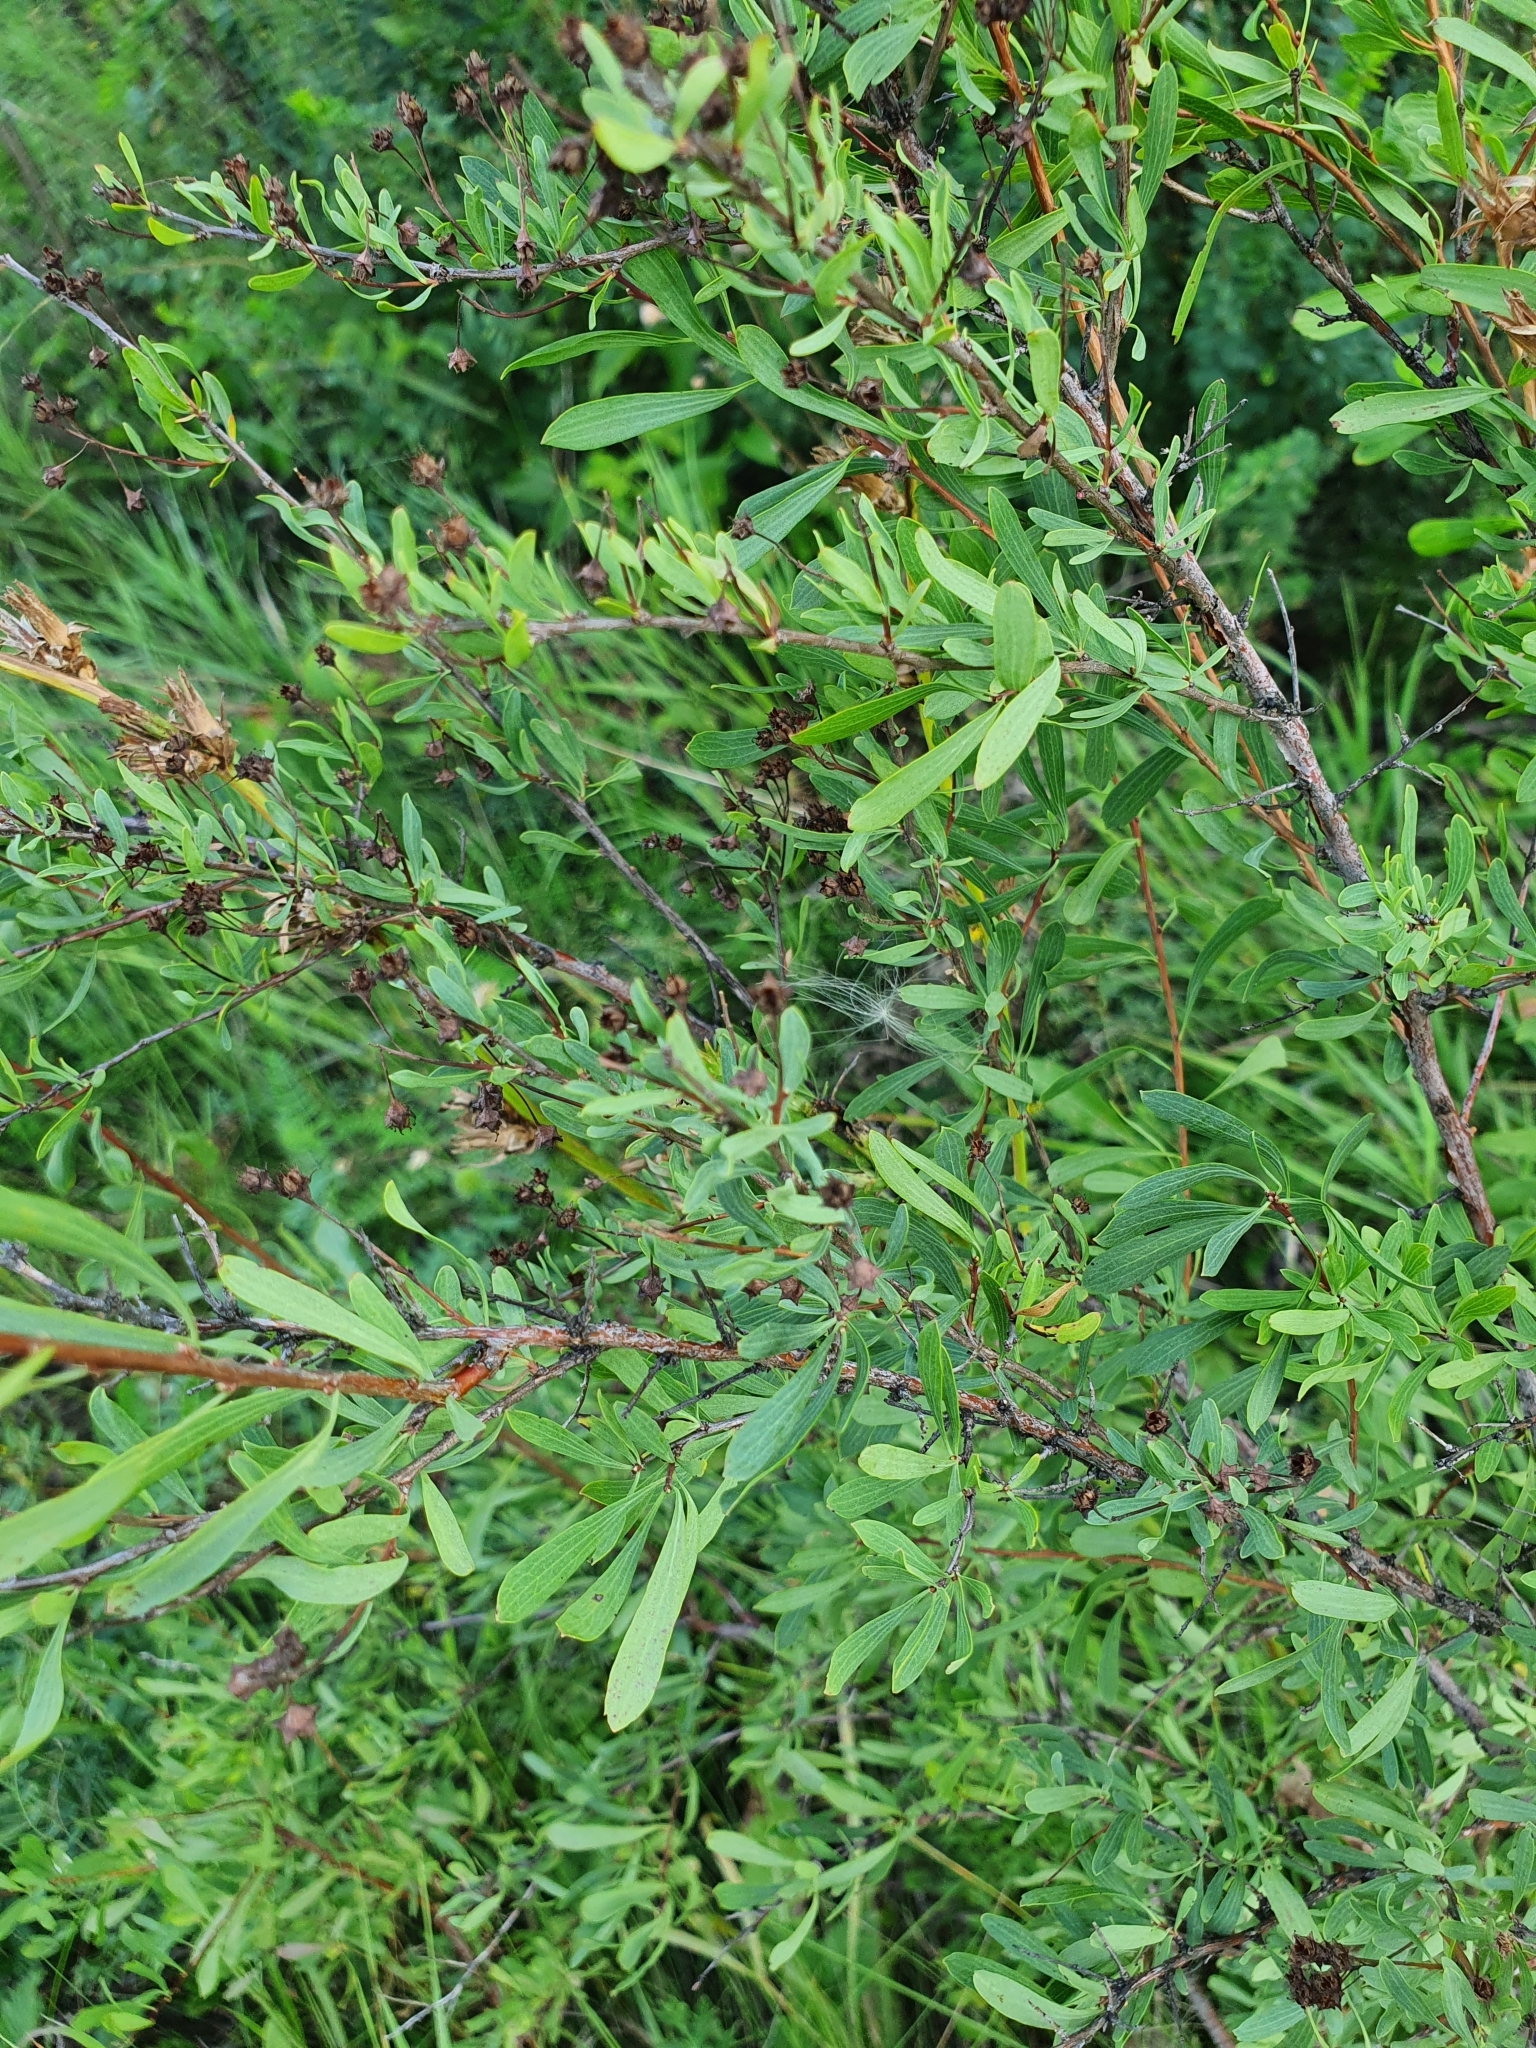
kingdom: Plantae
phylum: Tracheophyta
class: Magnoliopsida
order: Rosales
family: Rosaceae
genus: Spiraea
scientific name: Spiraea crenata
